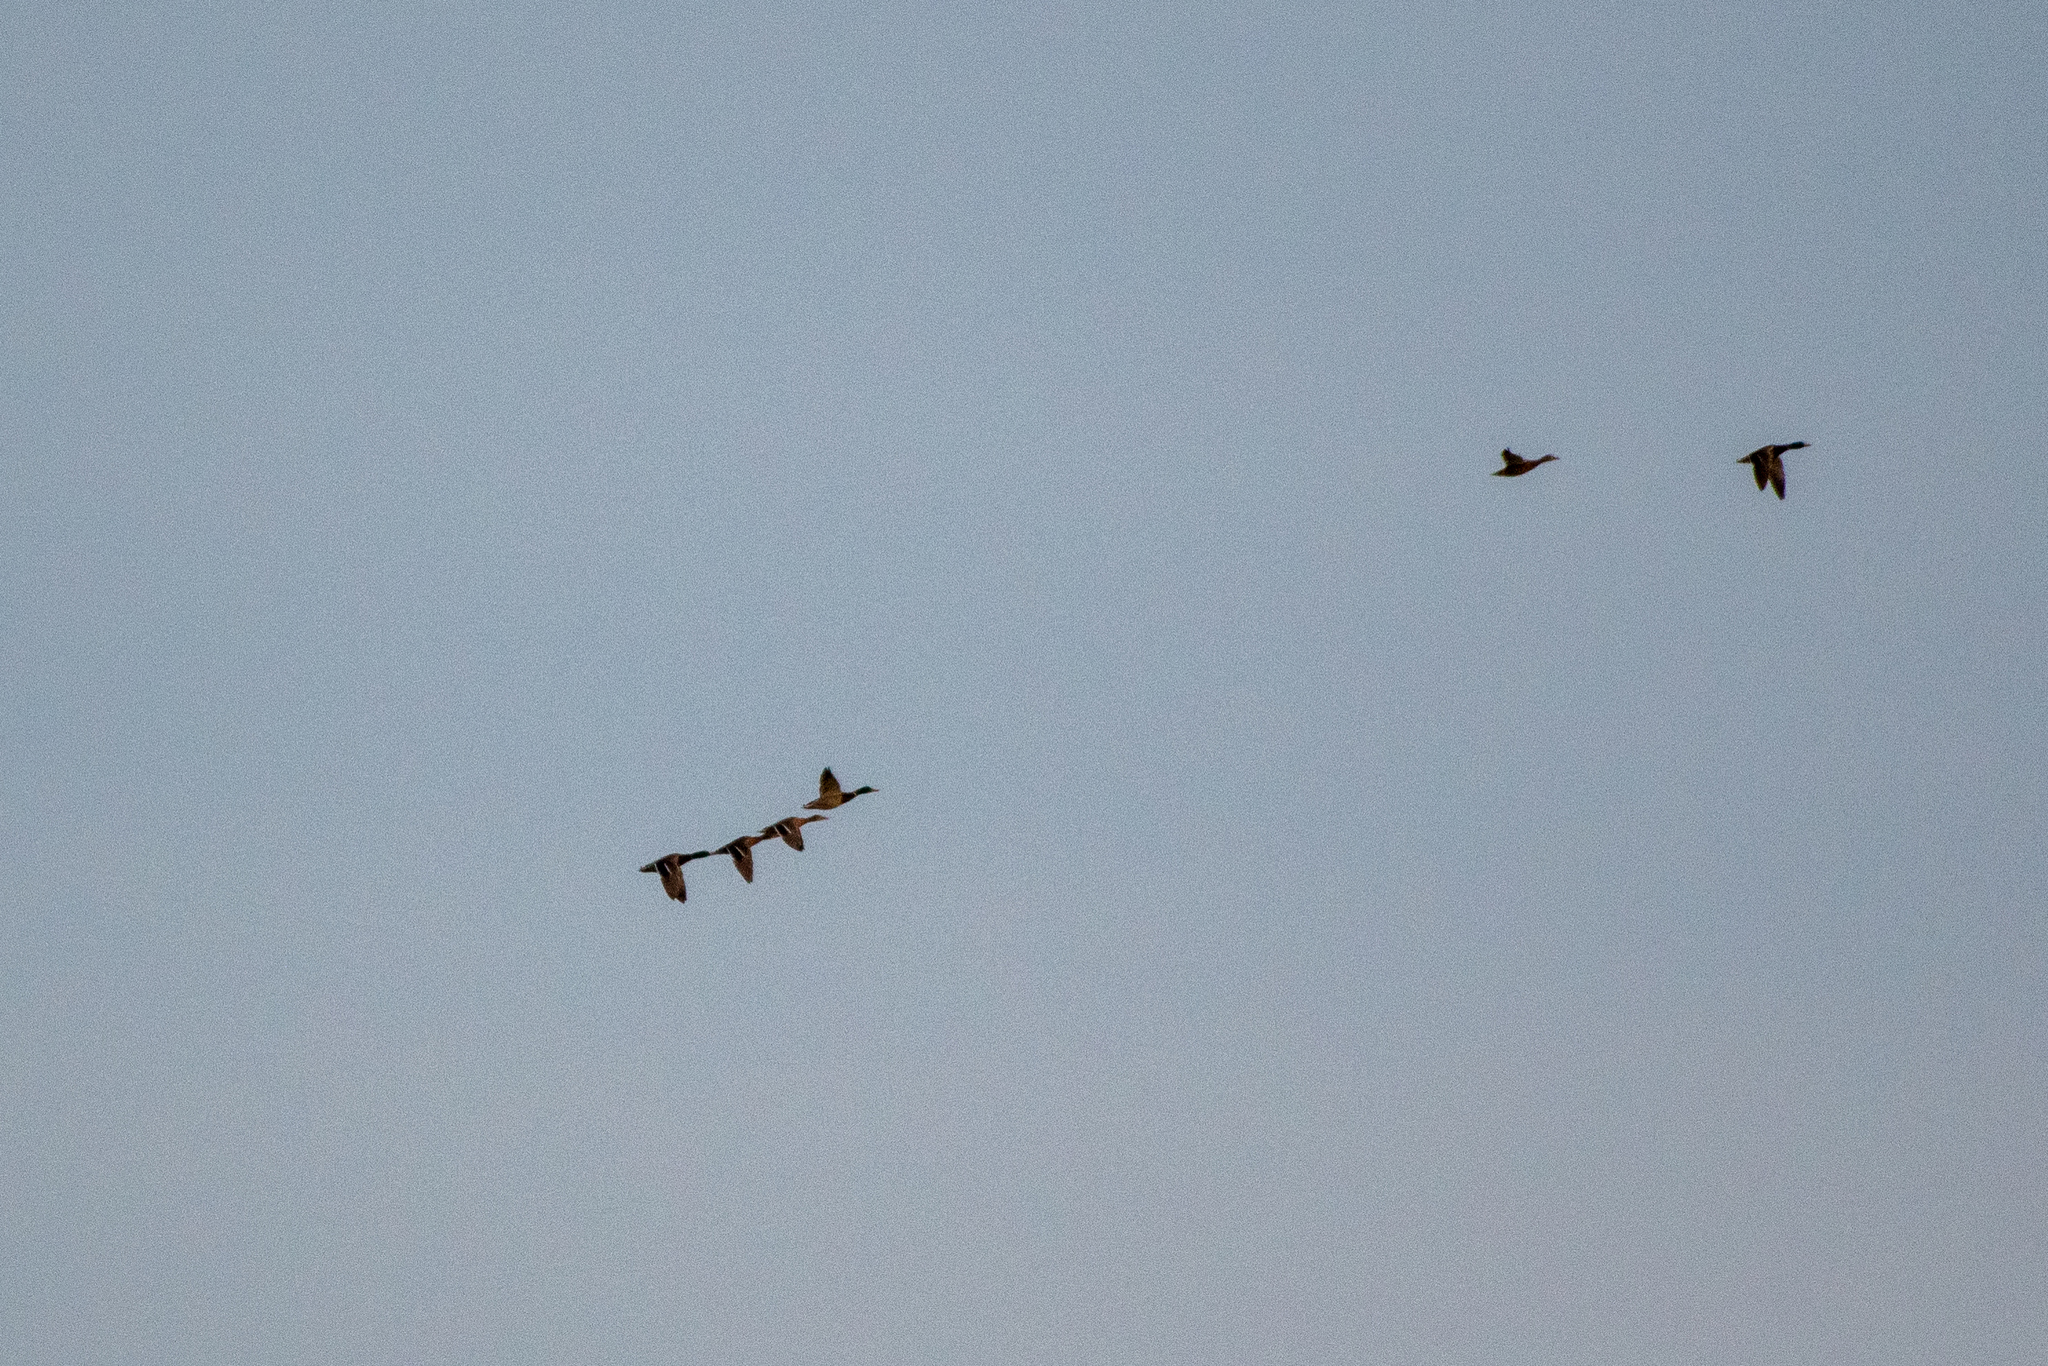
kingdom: Animalia
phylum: Chordata
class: Aves
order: Anseriformes
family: Anatidae
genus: Anas
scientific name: Anas platyrhynchos
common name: Mallard
